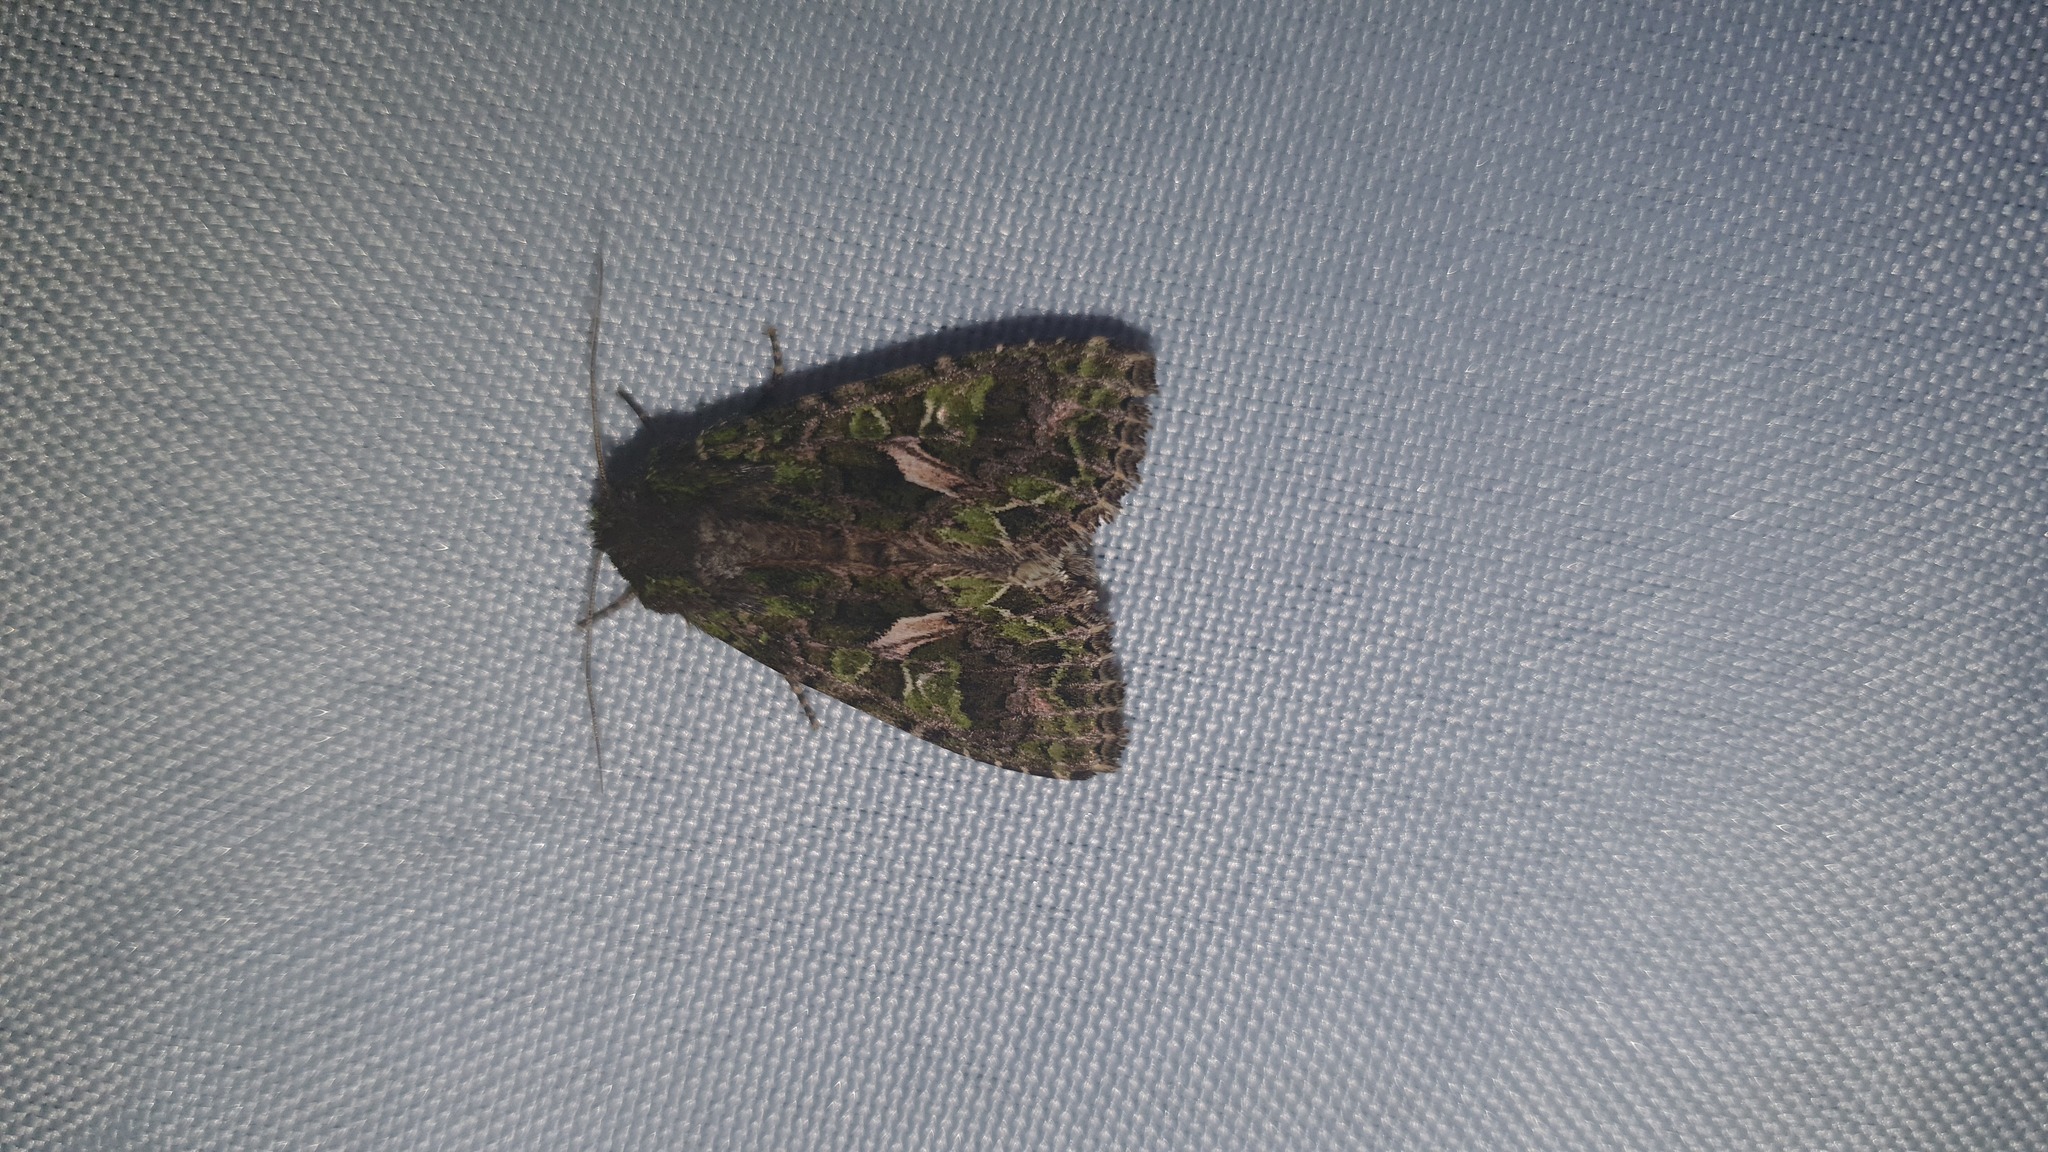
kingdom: Animalia
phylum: Arthropoda
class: Insecta
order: Lepidoptera
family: Noctuidae
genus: Trachea
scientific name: Trachea atriplicis
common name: Orache moth
